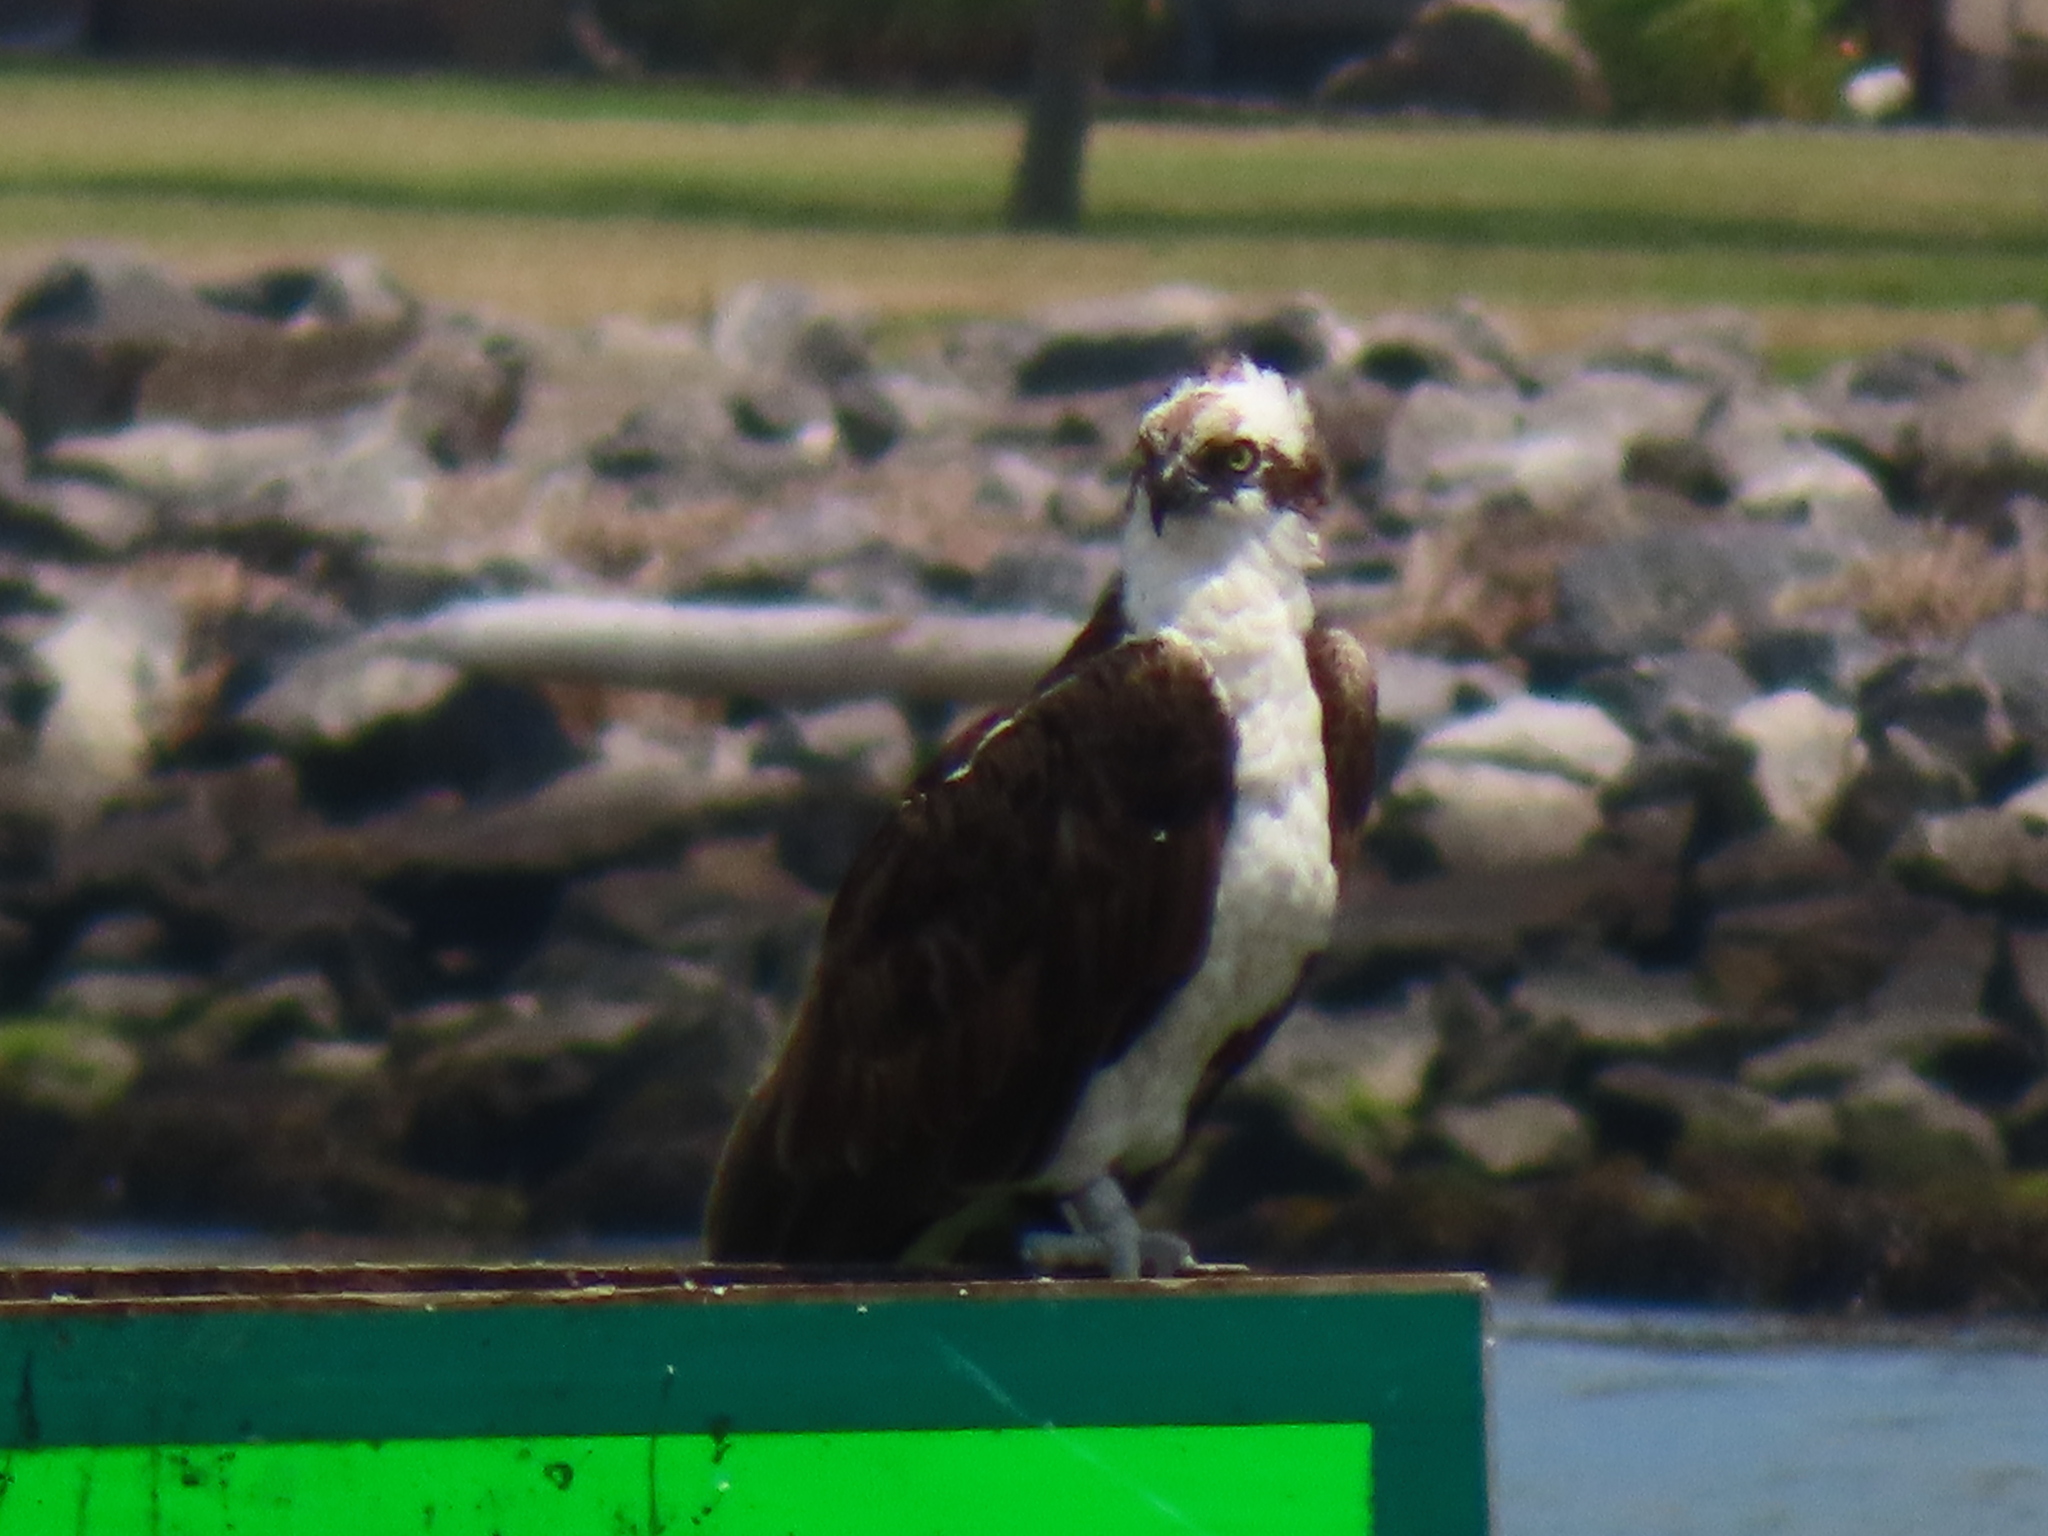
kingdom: Animalia
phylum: Chordata
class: Aves
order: Accipitriformes
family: Pandionidae
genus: Pandion
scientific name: Pandion haliaetus
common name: Osprey
